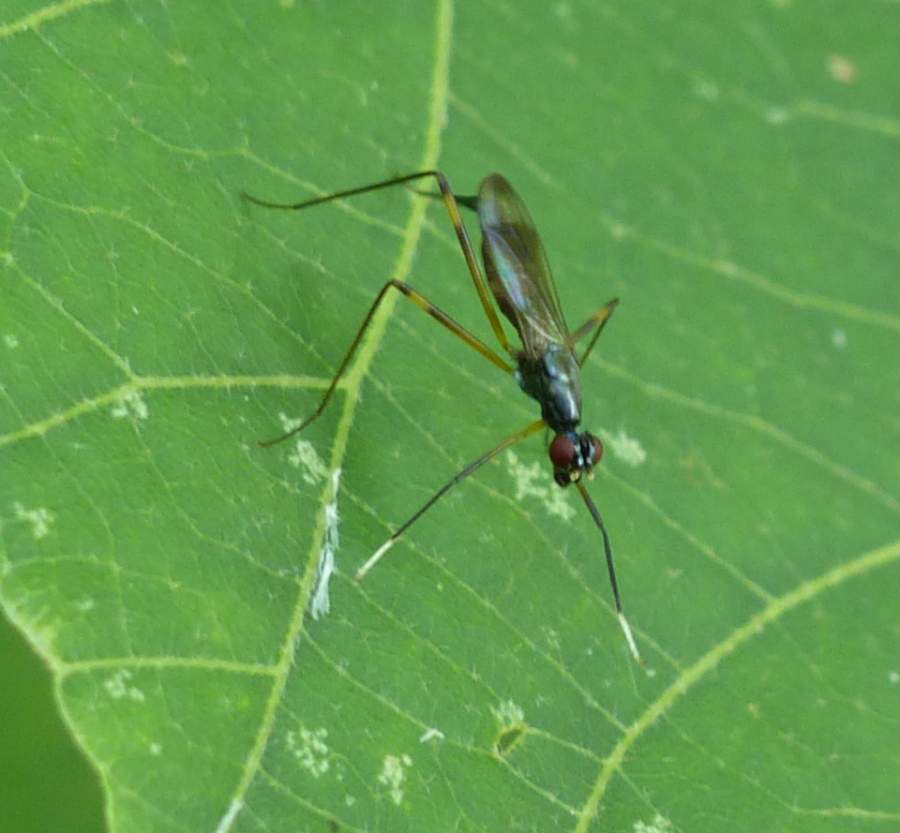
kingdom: Animalia
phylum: Arthropoda
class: Insecta
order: Diptera
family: Micropezidae
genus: Rainieria
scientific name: Rainieria antennaepes
